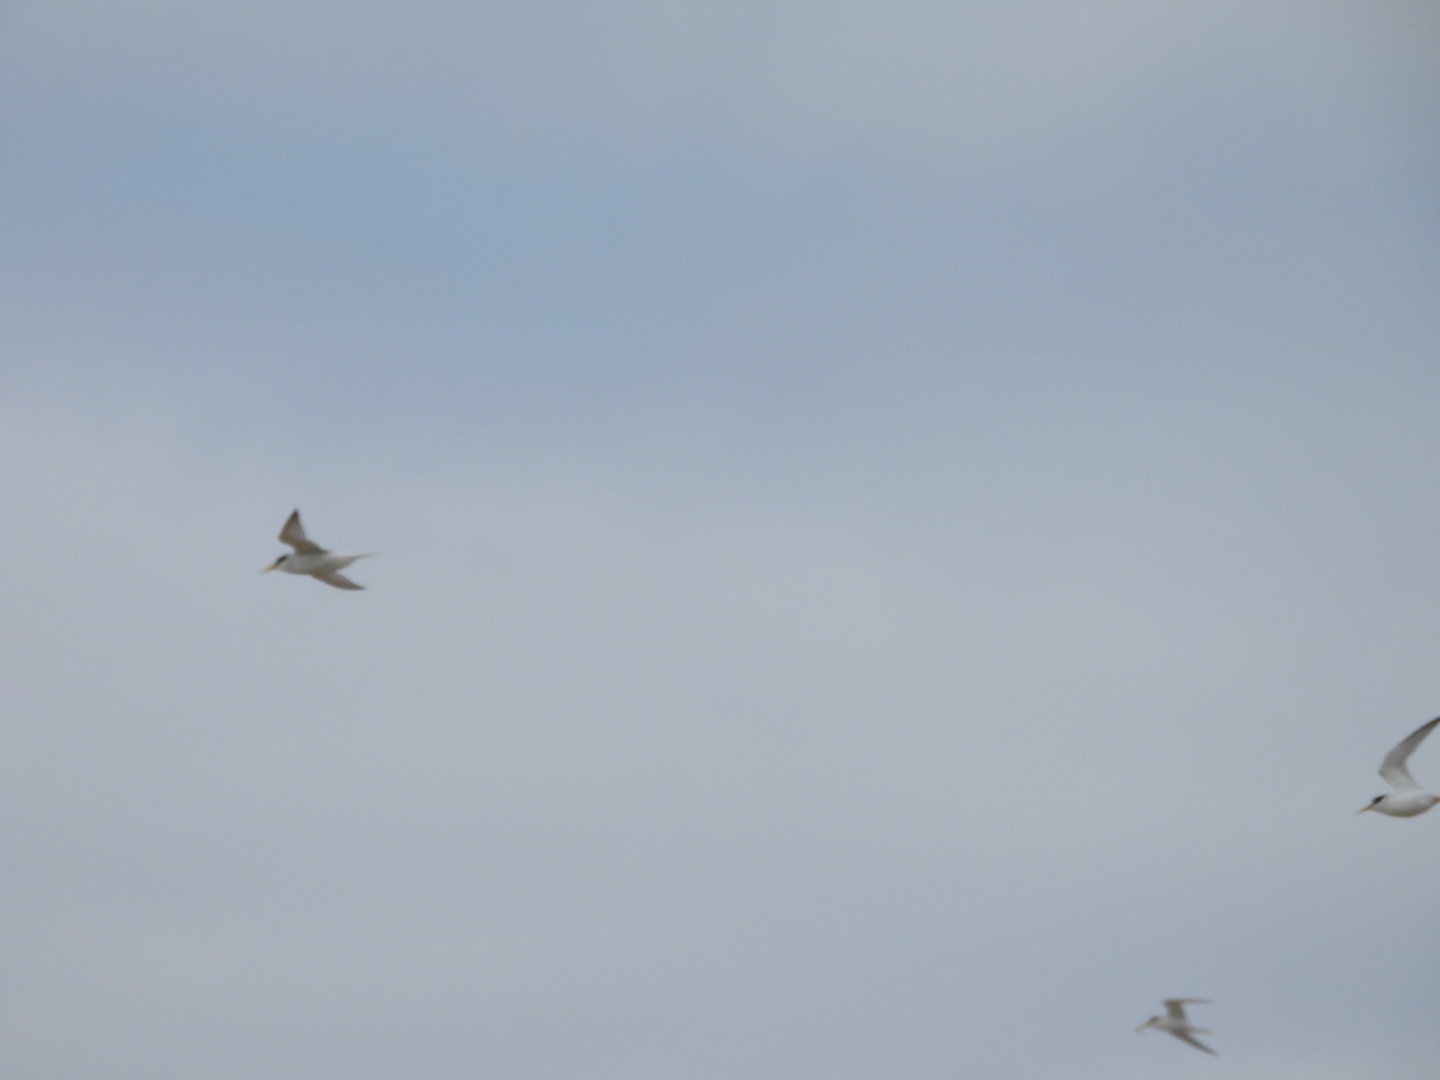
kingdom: Animalia
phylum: Chordata
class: Aves
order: Charadriiformes
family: Laridae
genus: Sternula
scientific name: Sternula albifrons
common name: Little tern
